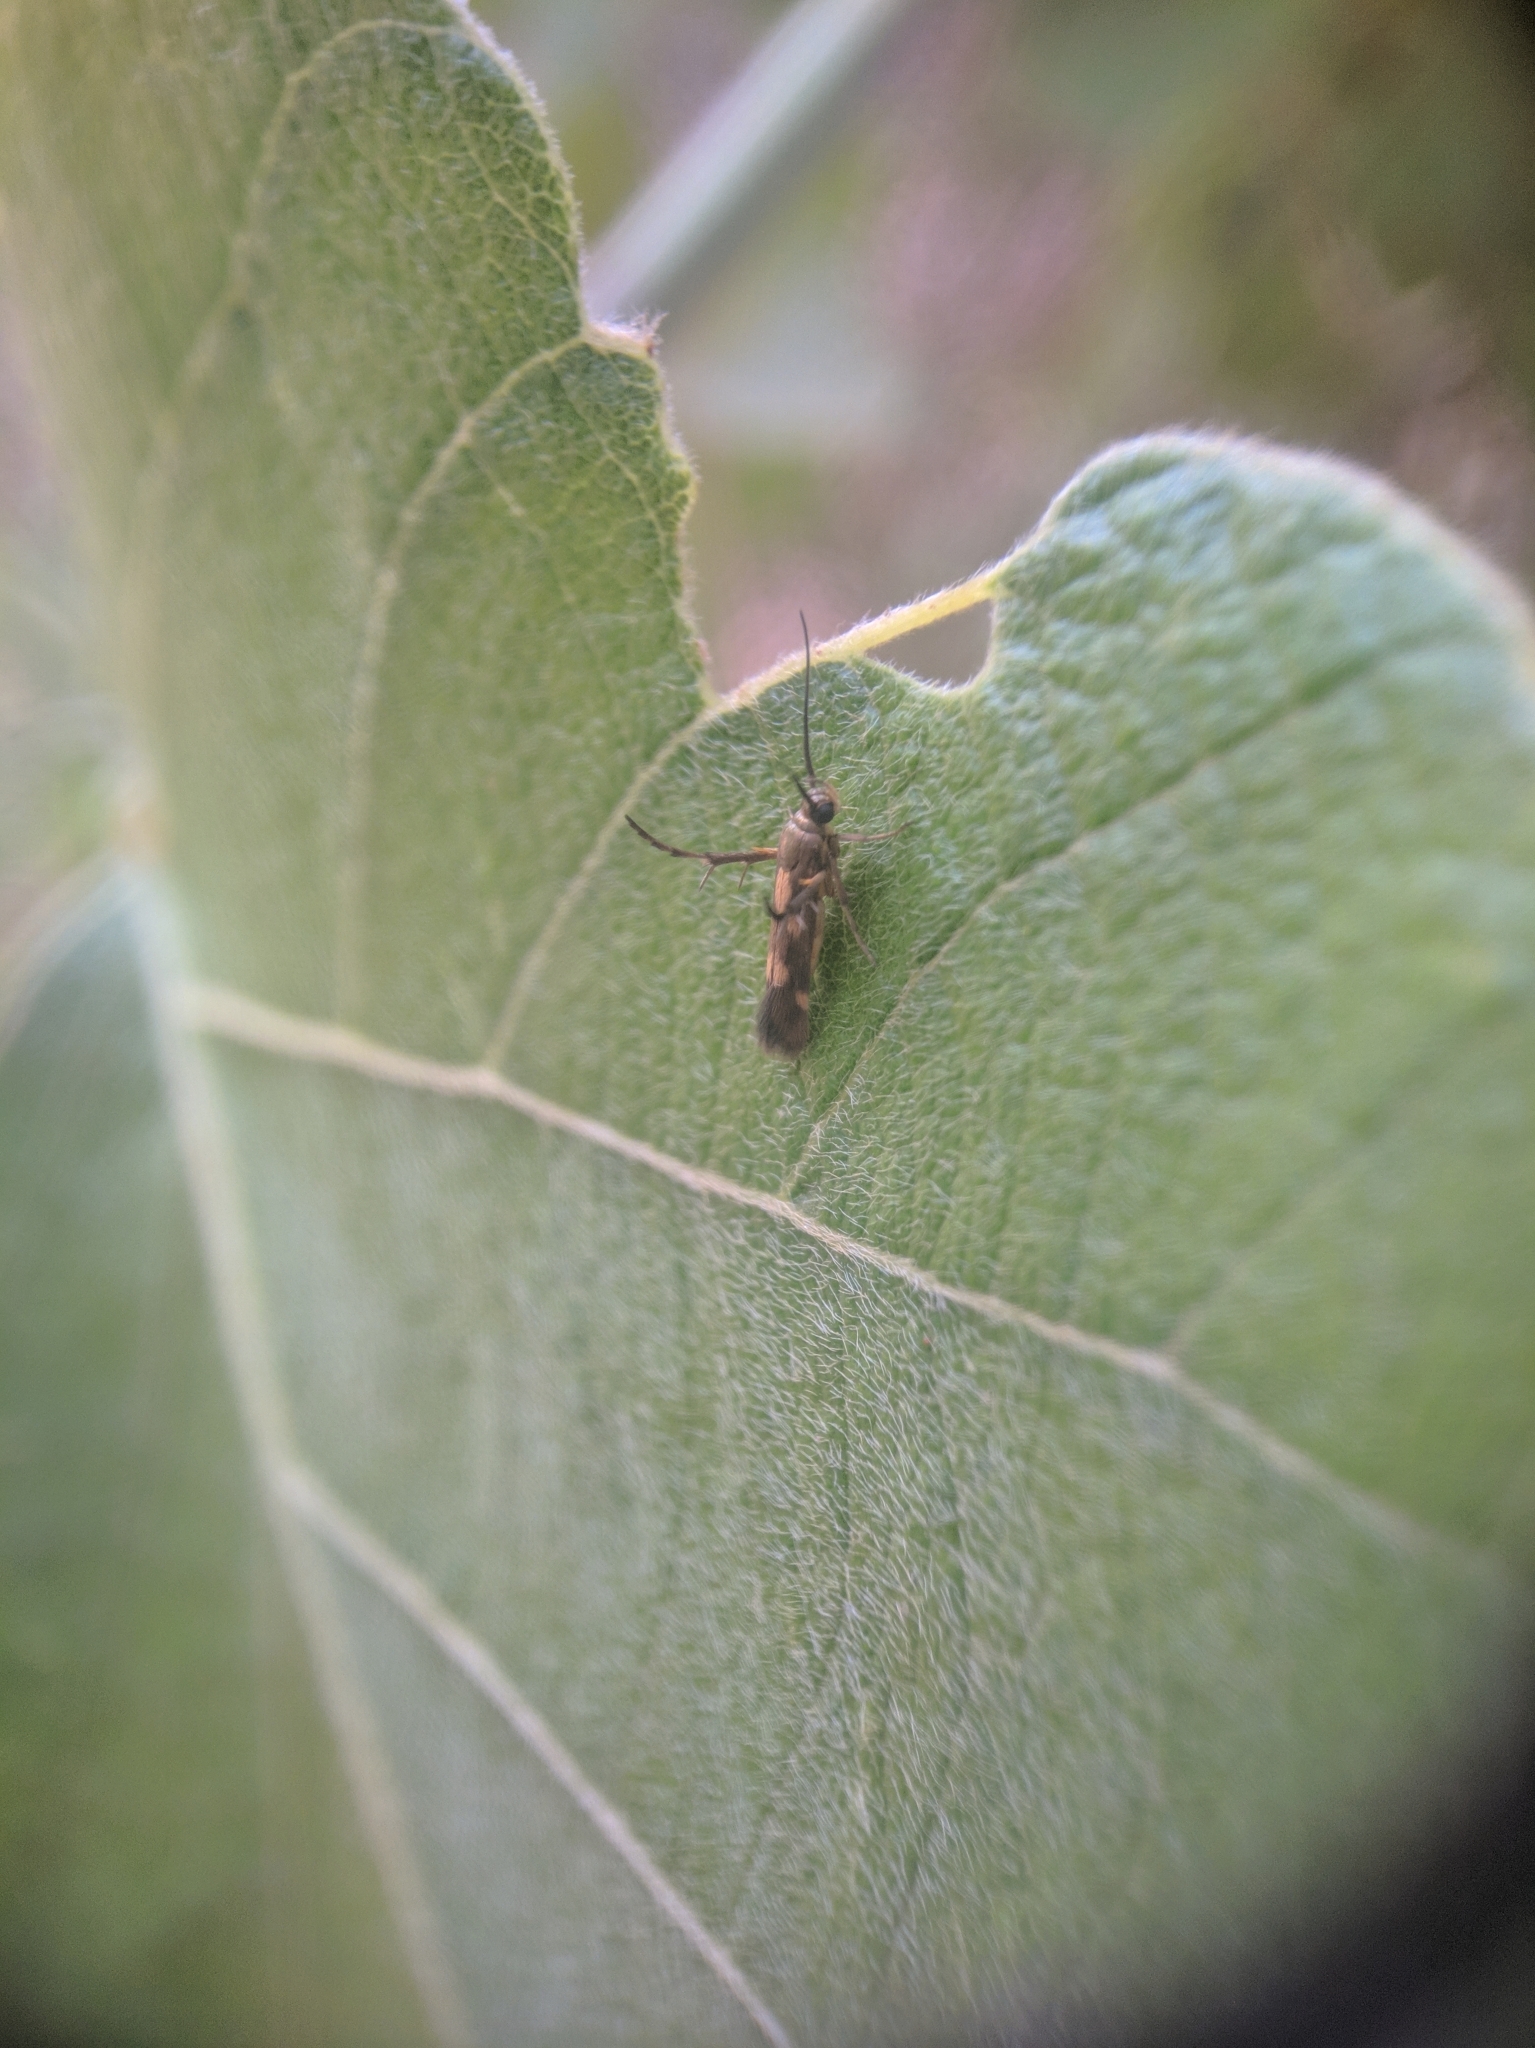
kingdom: Animalia
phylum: Arthropoda
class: Insecta
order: Lepidoptera
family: Scythrididae
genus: Eretmocera
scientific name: Eretmocera impactella
